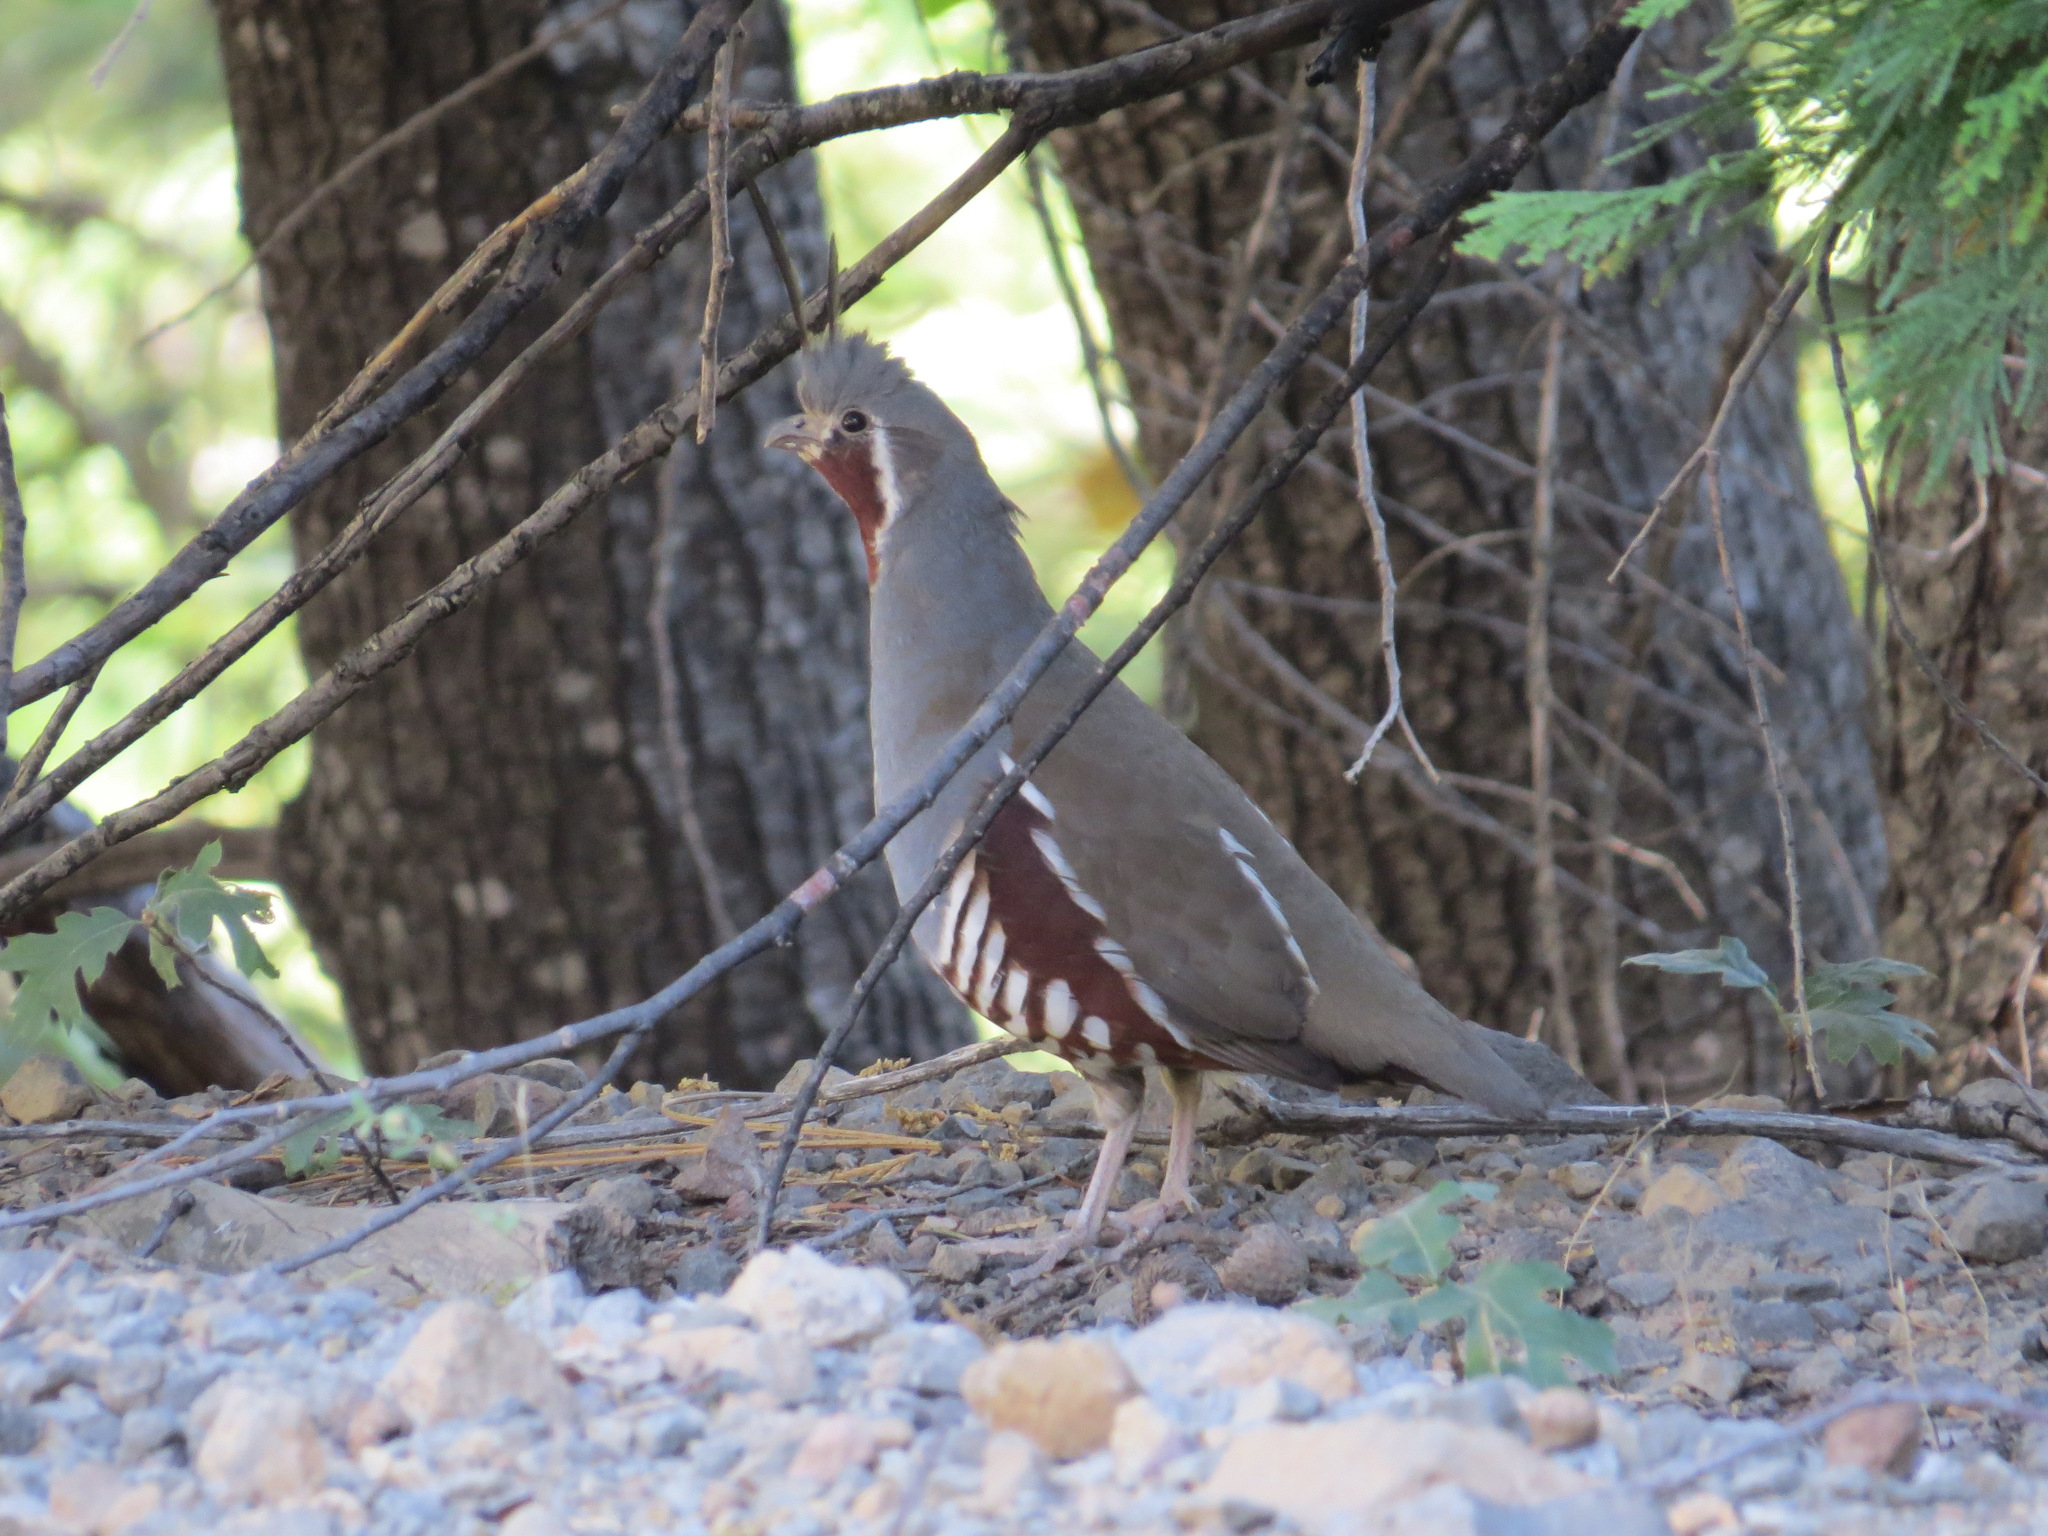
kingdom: Animalia
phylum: Chordata
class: Aves
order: Galliformes
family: Odontophoridae
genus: Oreortyx
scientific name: Oreortyx pictus
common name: Mountain quail
